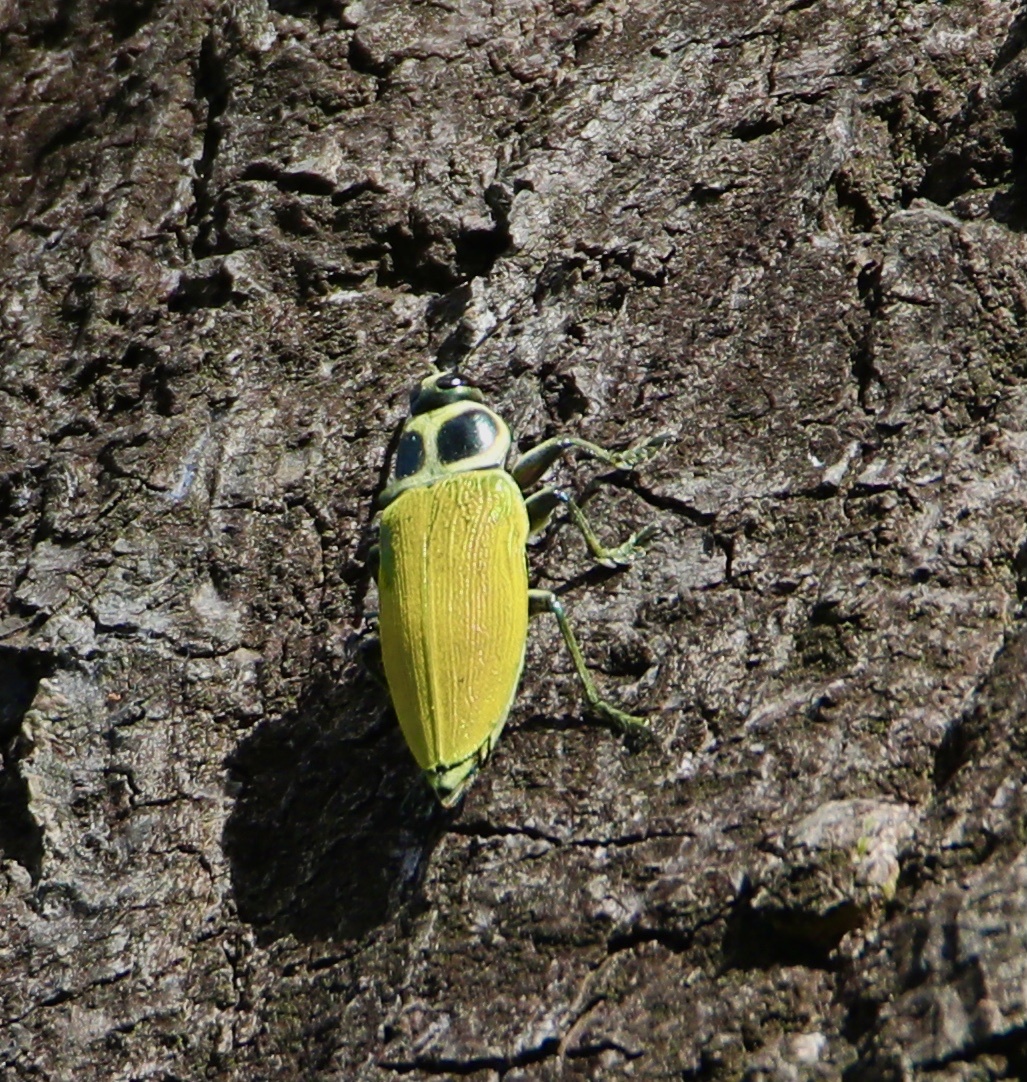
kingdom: Animalia
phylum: Arthropoda
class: Insecta
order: Coleoptera
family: Buprestidae
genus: Euchroma
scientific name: Euchroma giganteum
